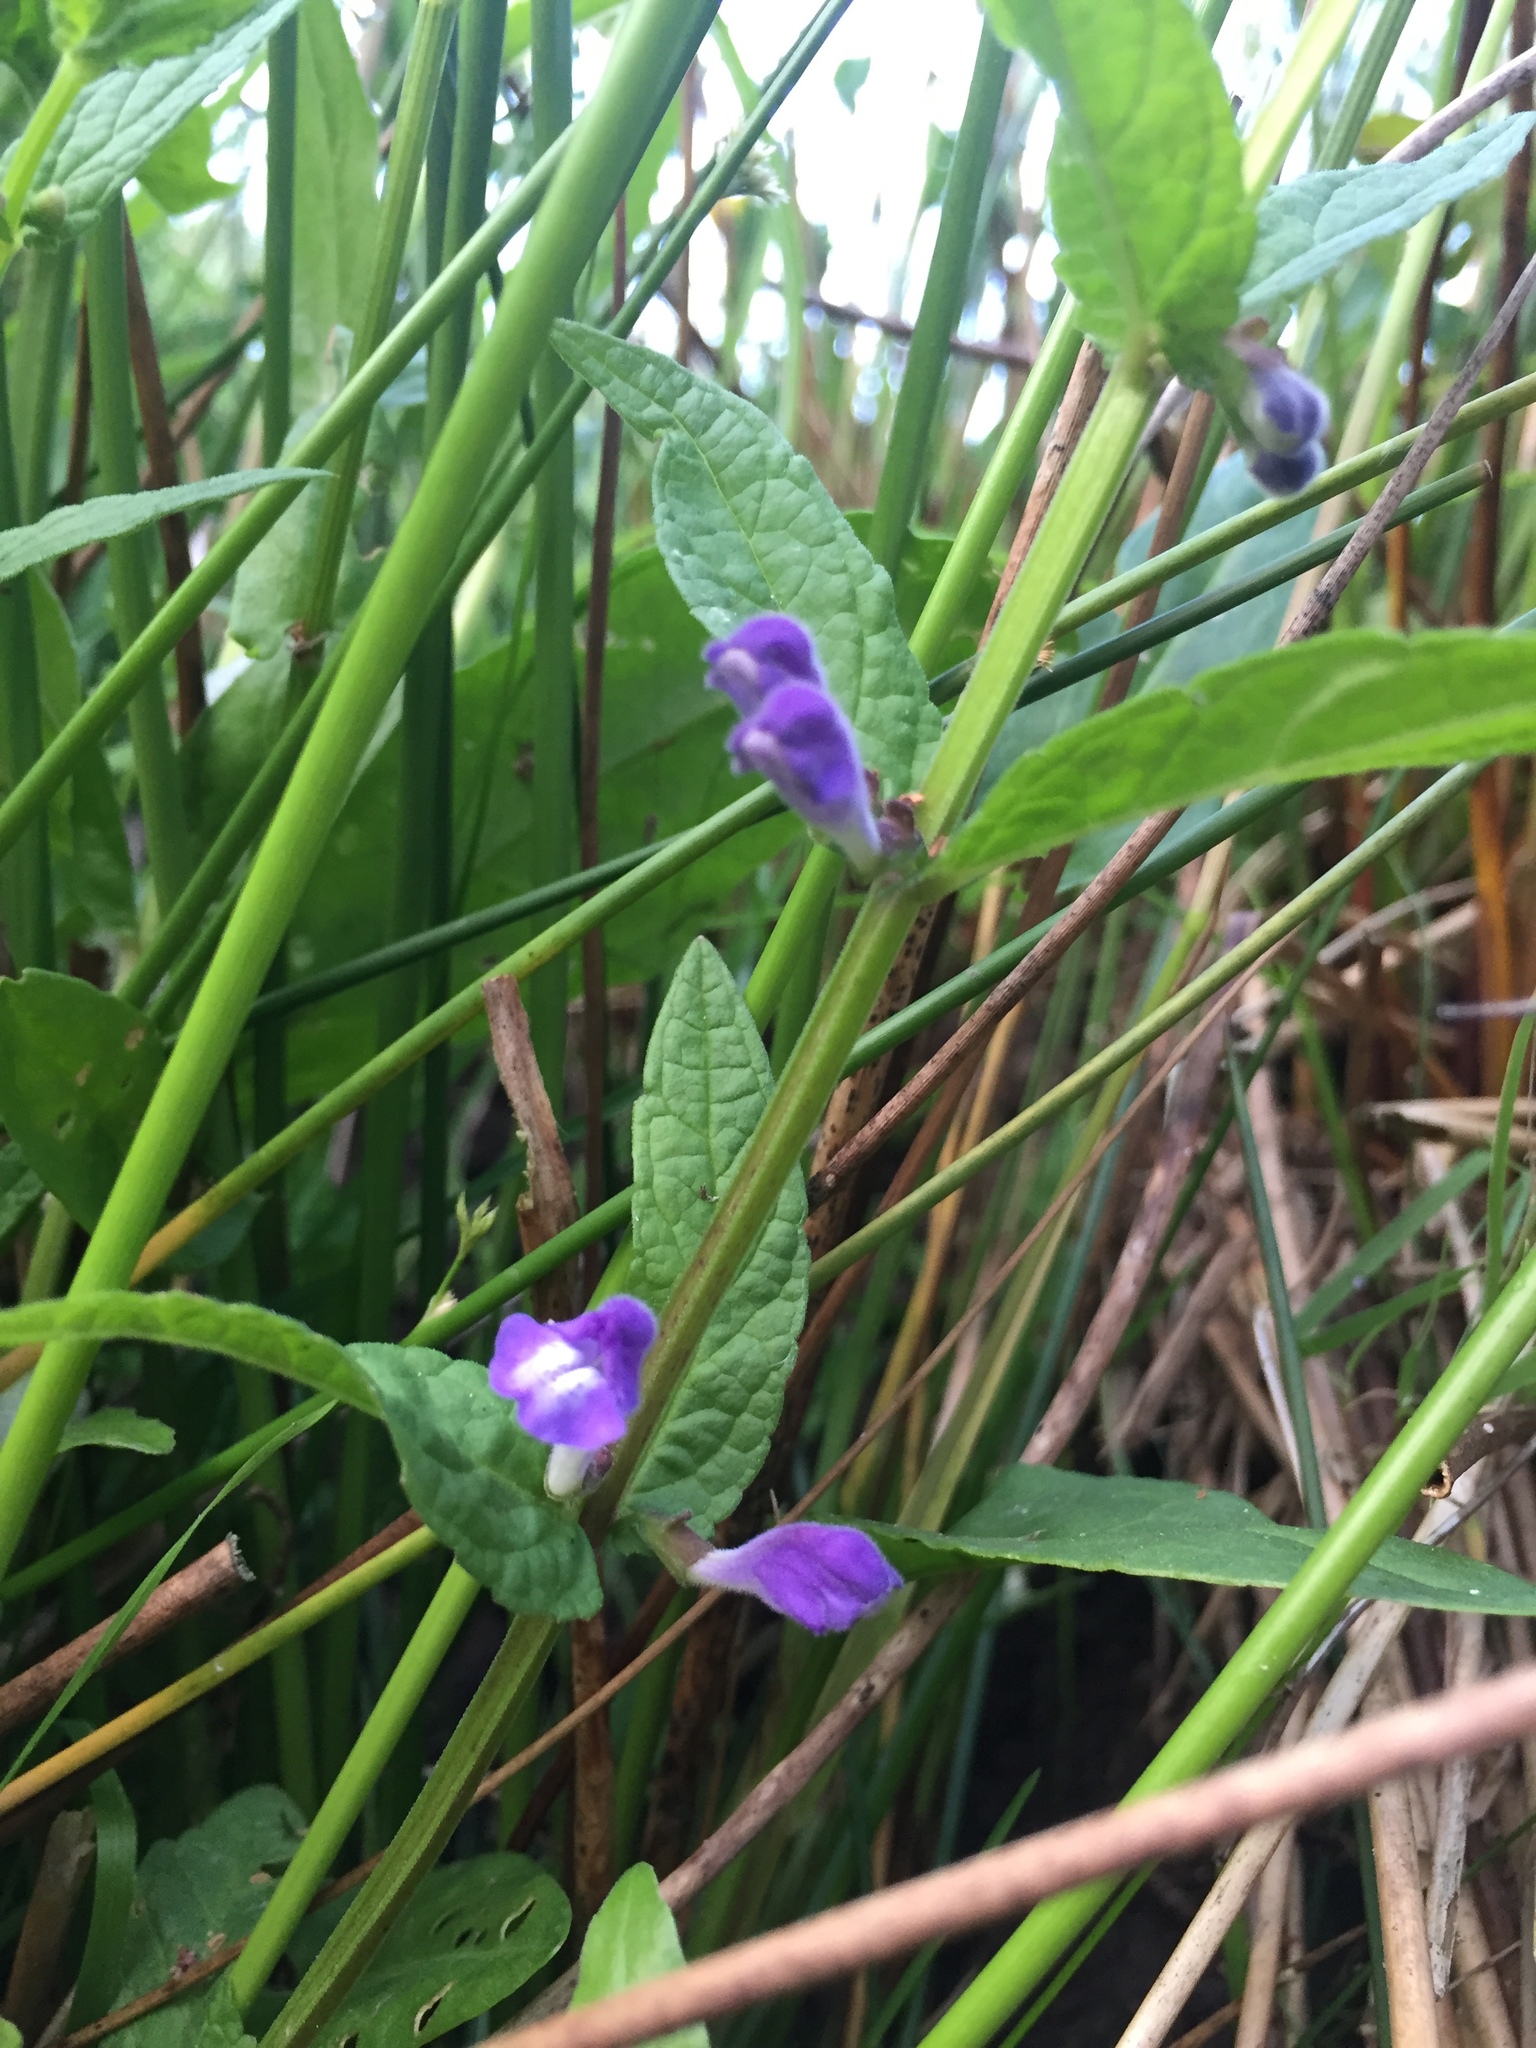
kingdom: Plantae
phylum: Tracheophyta
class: Magnoliopsida
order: Lamiales
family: Lamiaceae
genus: Scutellaria
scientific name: Scutellaria galericulata
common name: Skullcap
